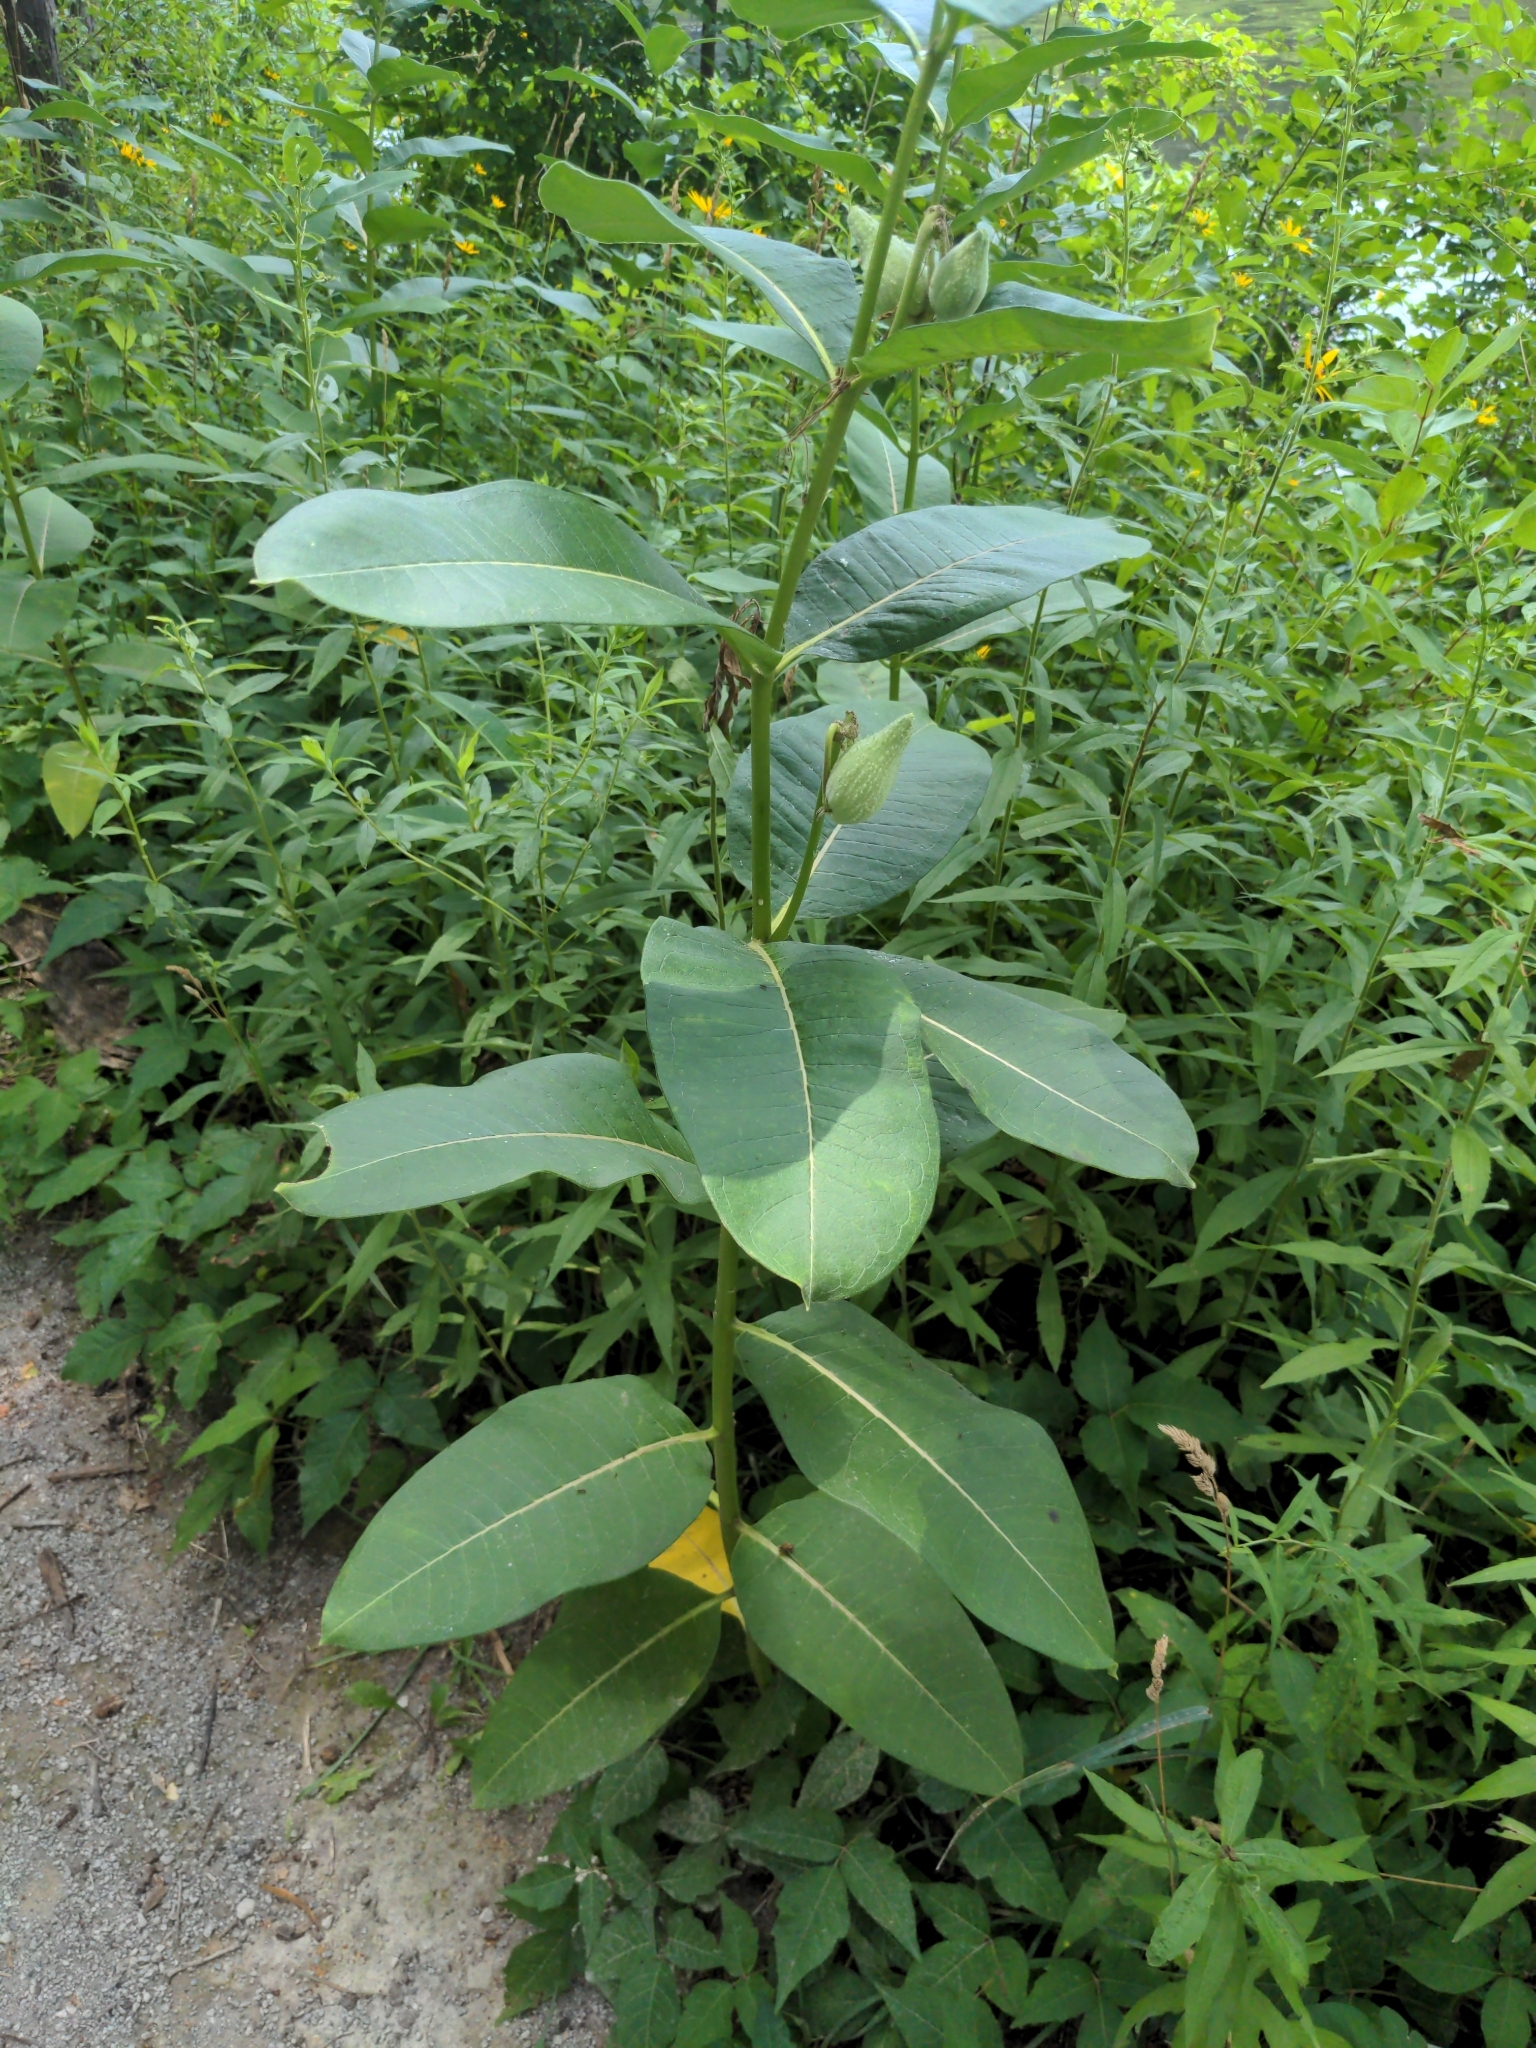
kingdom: Plantae
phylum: Tracheophyta
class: Magnoliopsida
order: Gentianales
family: Apocynaceae
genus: Asclepias
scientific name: Asclepias syriaca
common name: Common milkweed
